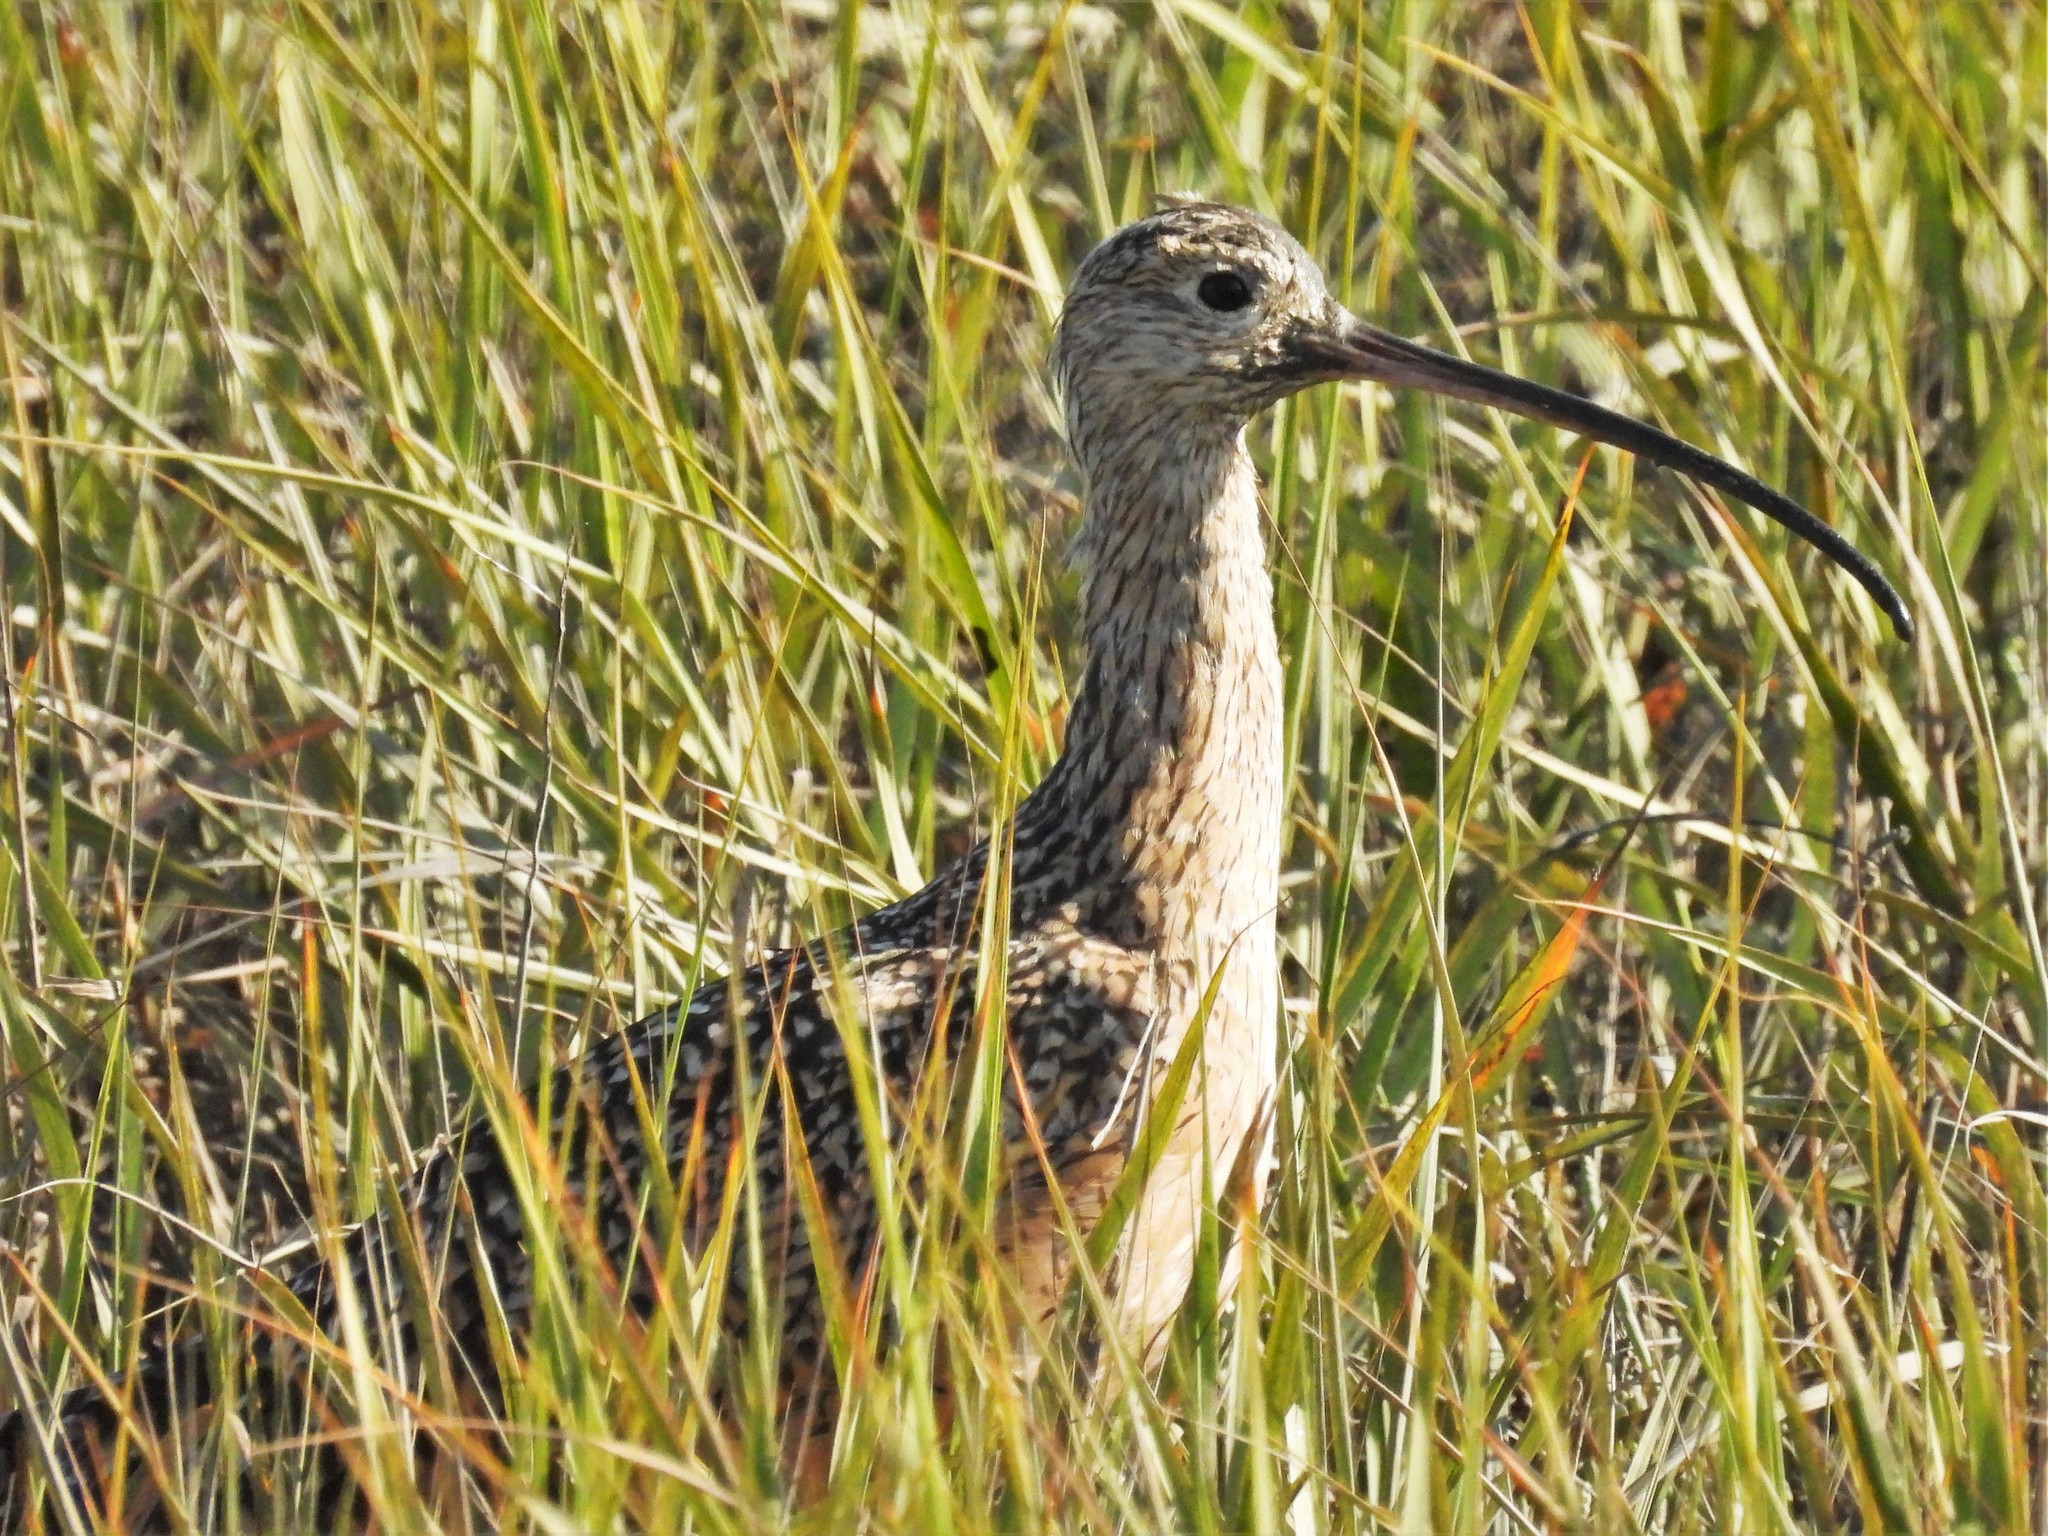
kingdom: Animalia
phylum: Chordata
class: Aves
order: Charadriiformes
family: Scolopacidae
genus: Numenius
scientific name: Numenius americanus
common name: Long-billed curlew
